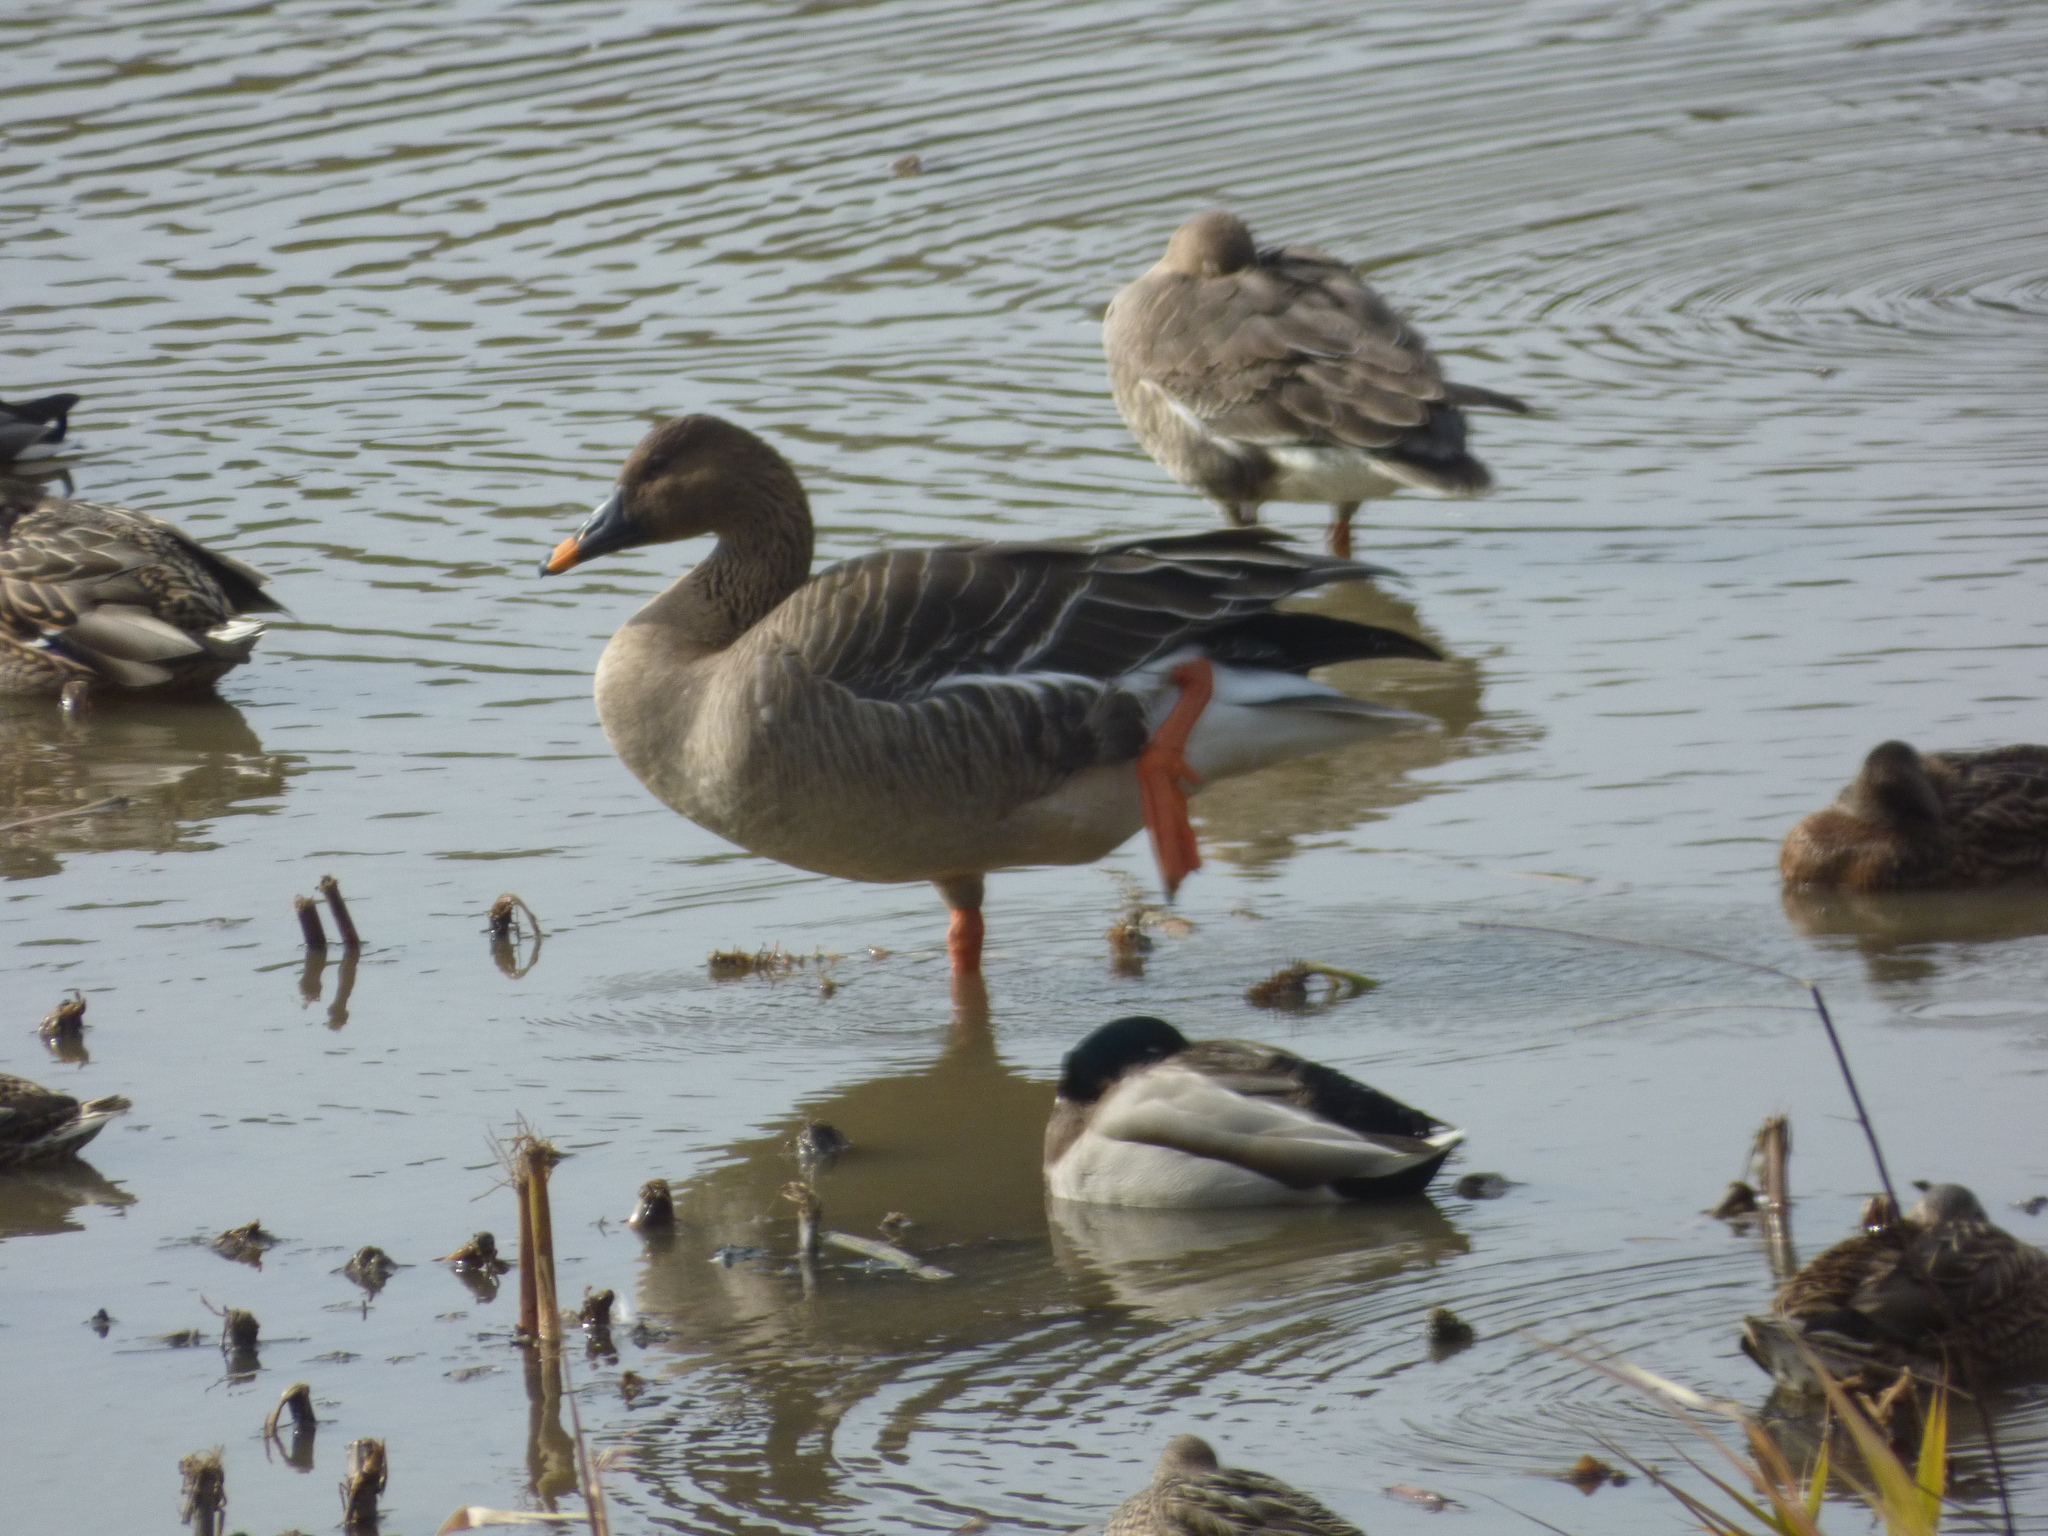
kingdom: Animalia
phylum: Chordata
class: Aves
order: Anseriformes
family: Anatidae
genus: Anser
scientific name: Anser fabalis
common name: Bean goose
